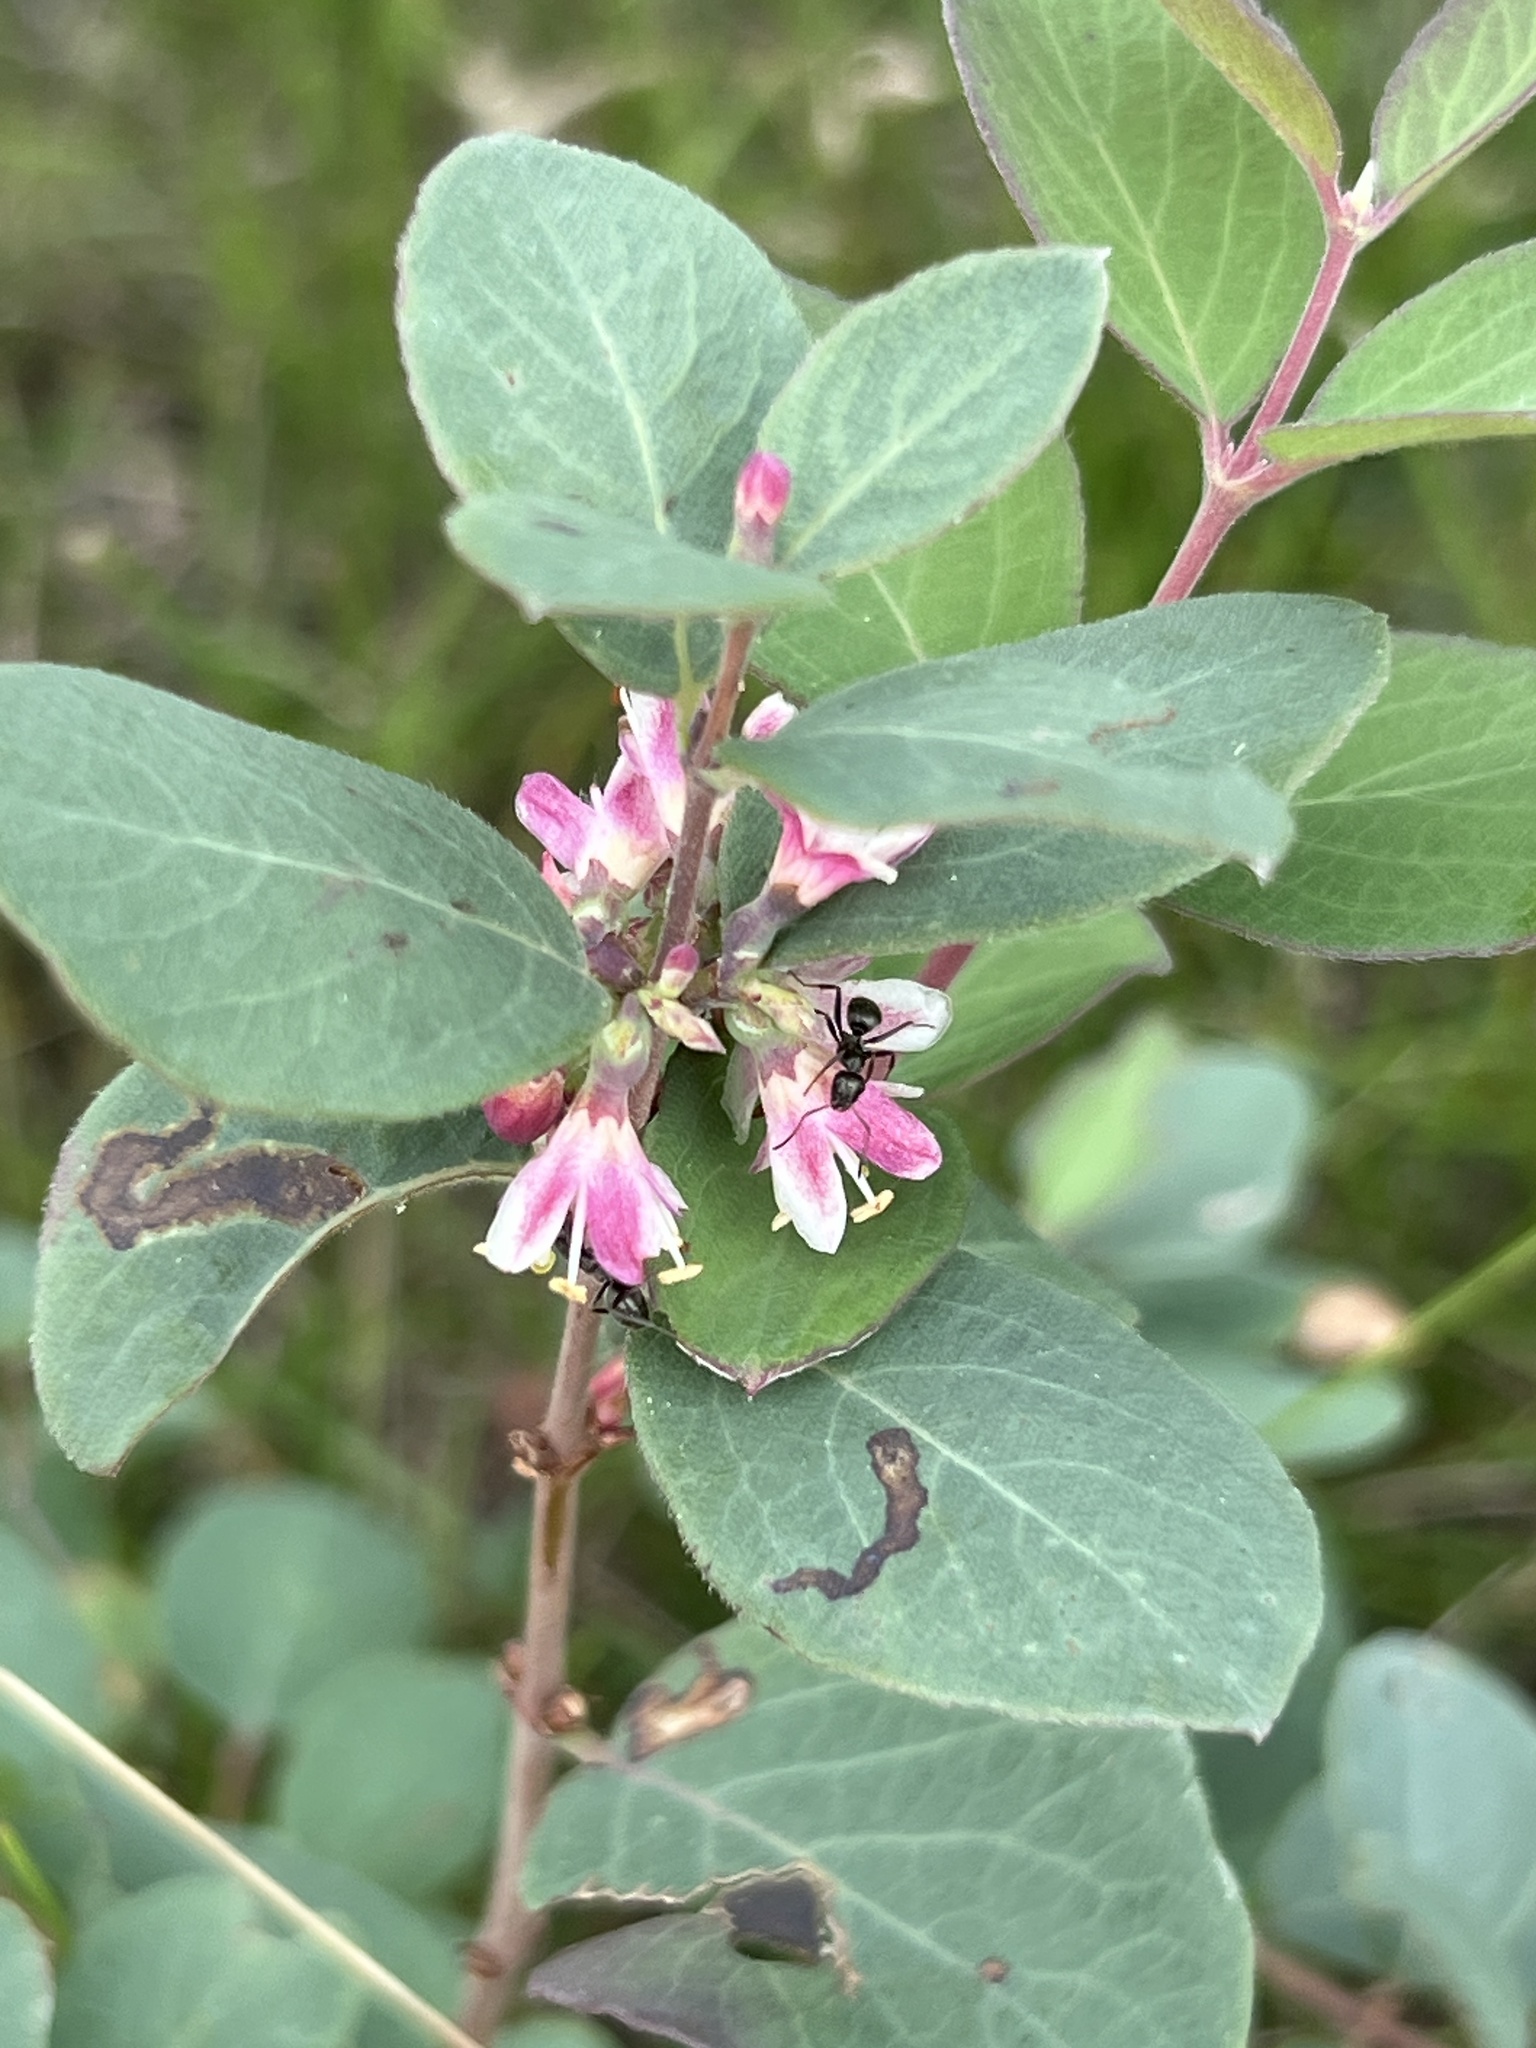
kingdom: Plantae
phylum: Tracheophyta
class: Magnoliopsida
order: Dipsacales
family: Caprifoliaceae
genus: Symphoricarpos
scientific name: Symphoricarpos occidentalis
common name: Wolfberry
